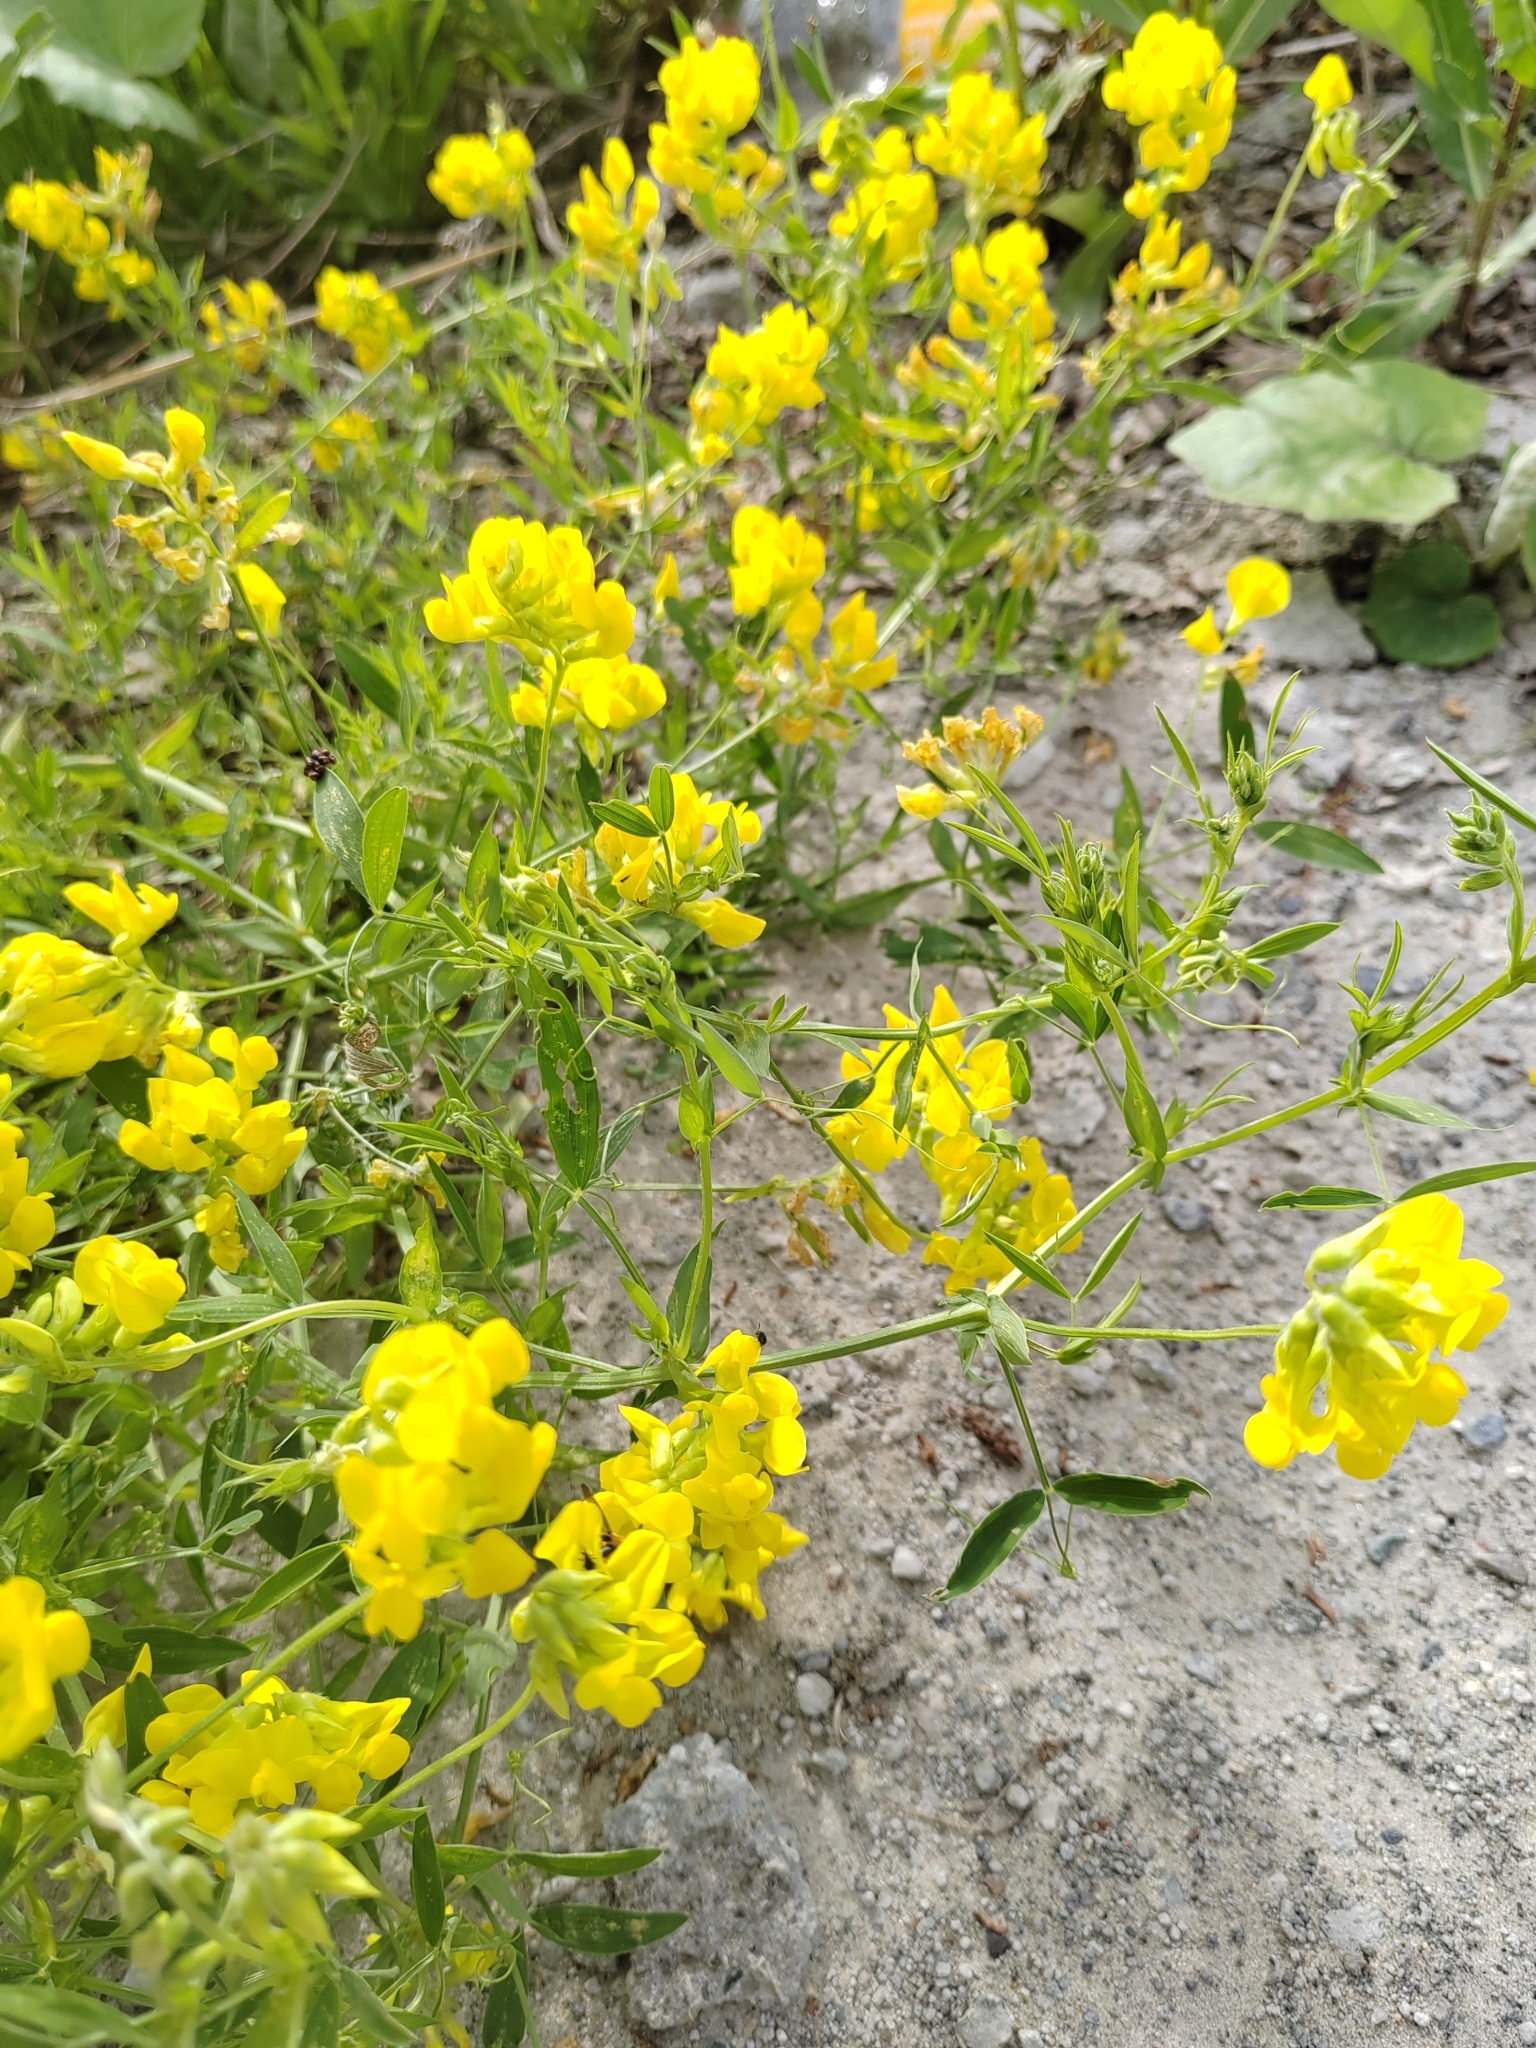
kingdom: Plantae
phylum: Tracheophyta
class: Magnoliopsida
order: Fabales
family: Fabaceae
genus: Lathyrus
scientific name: Lathyrus pratensis
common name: Meadow vetchling
